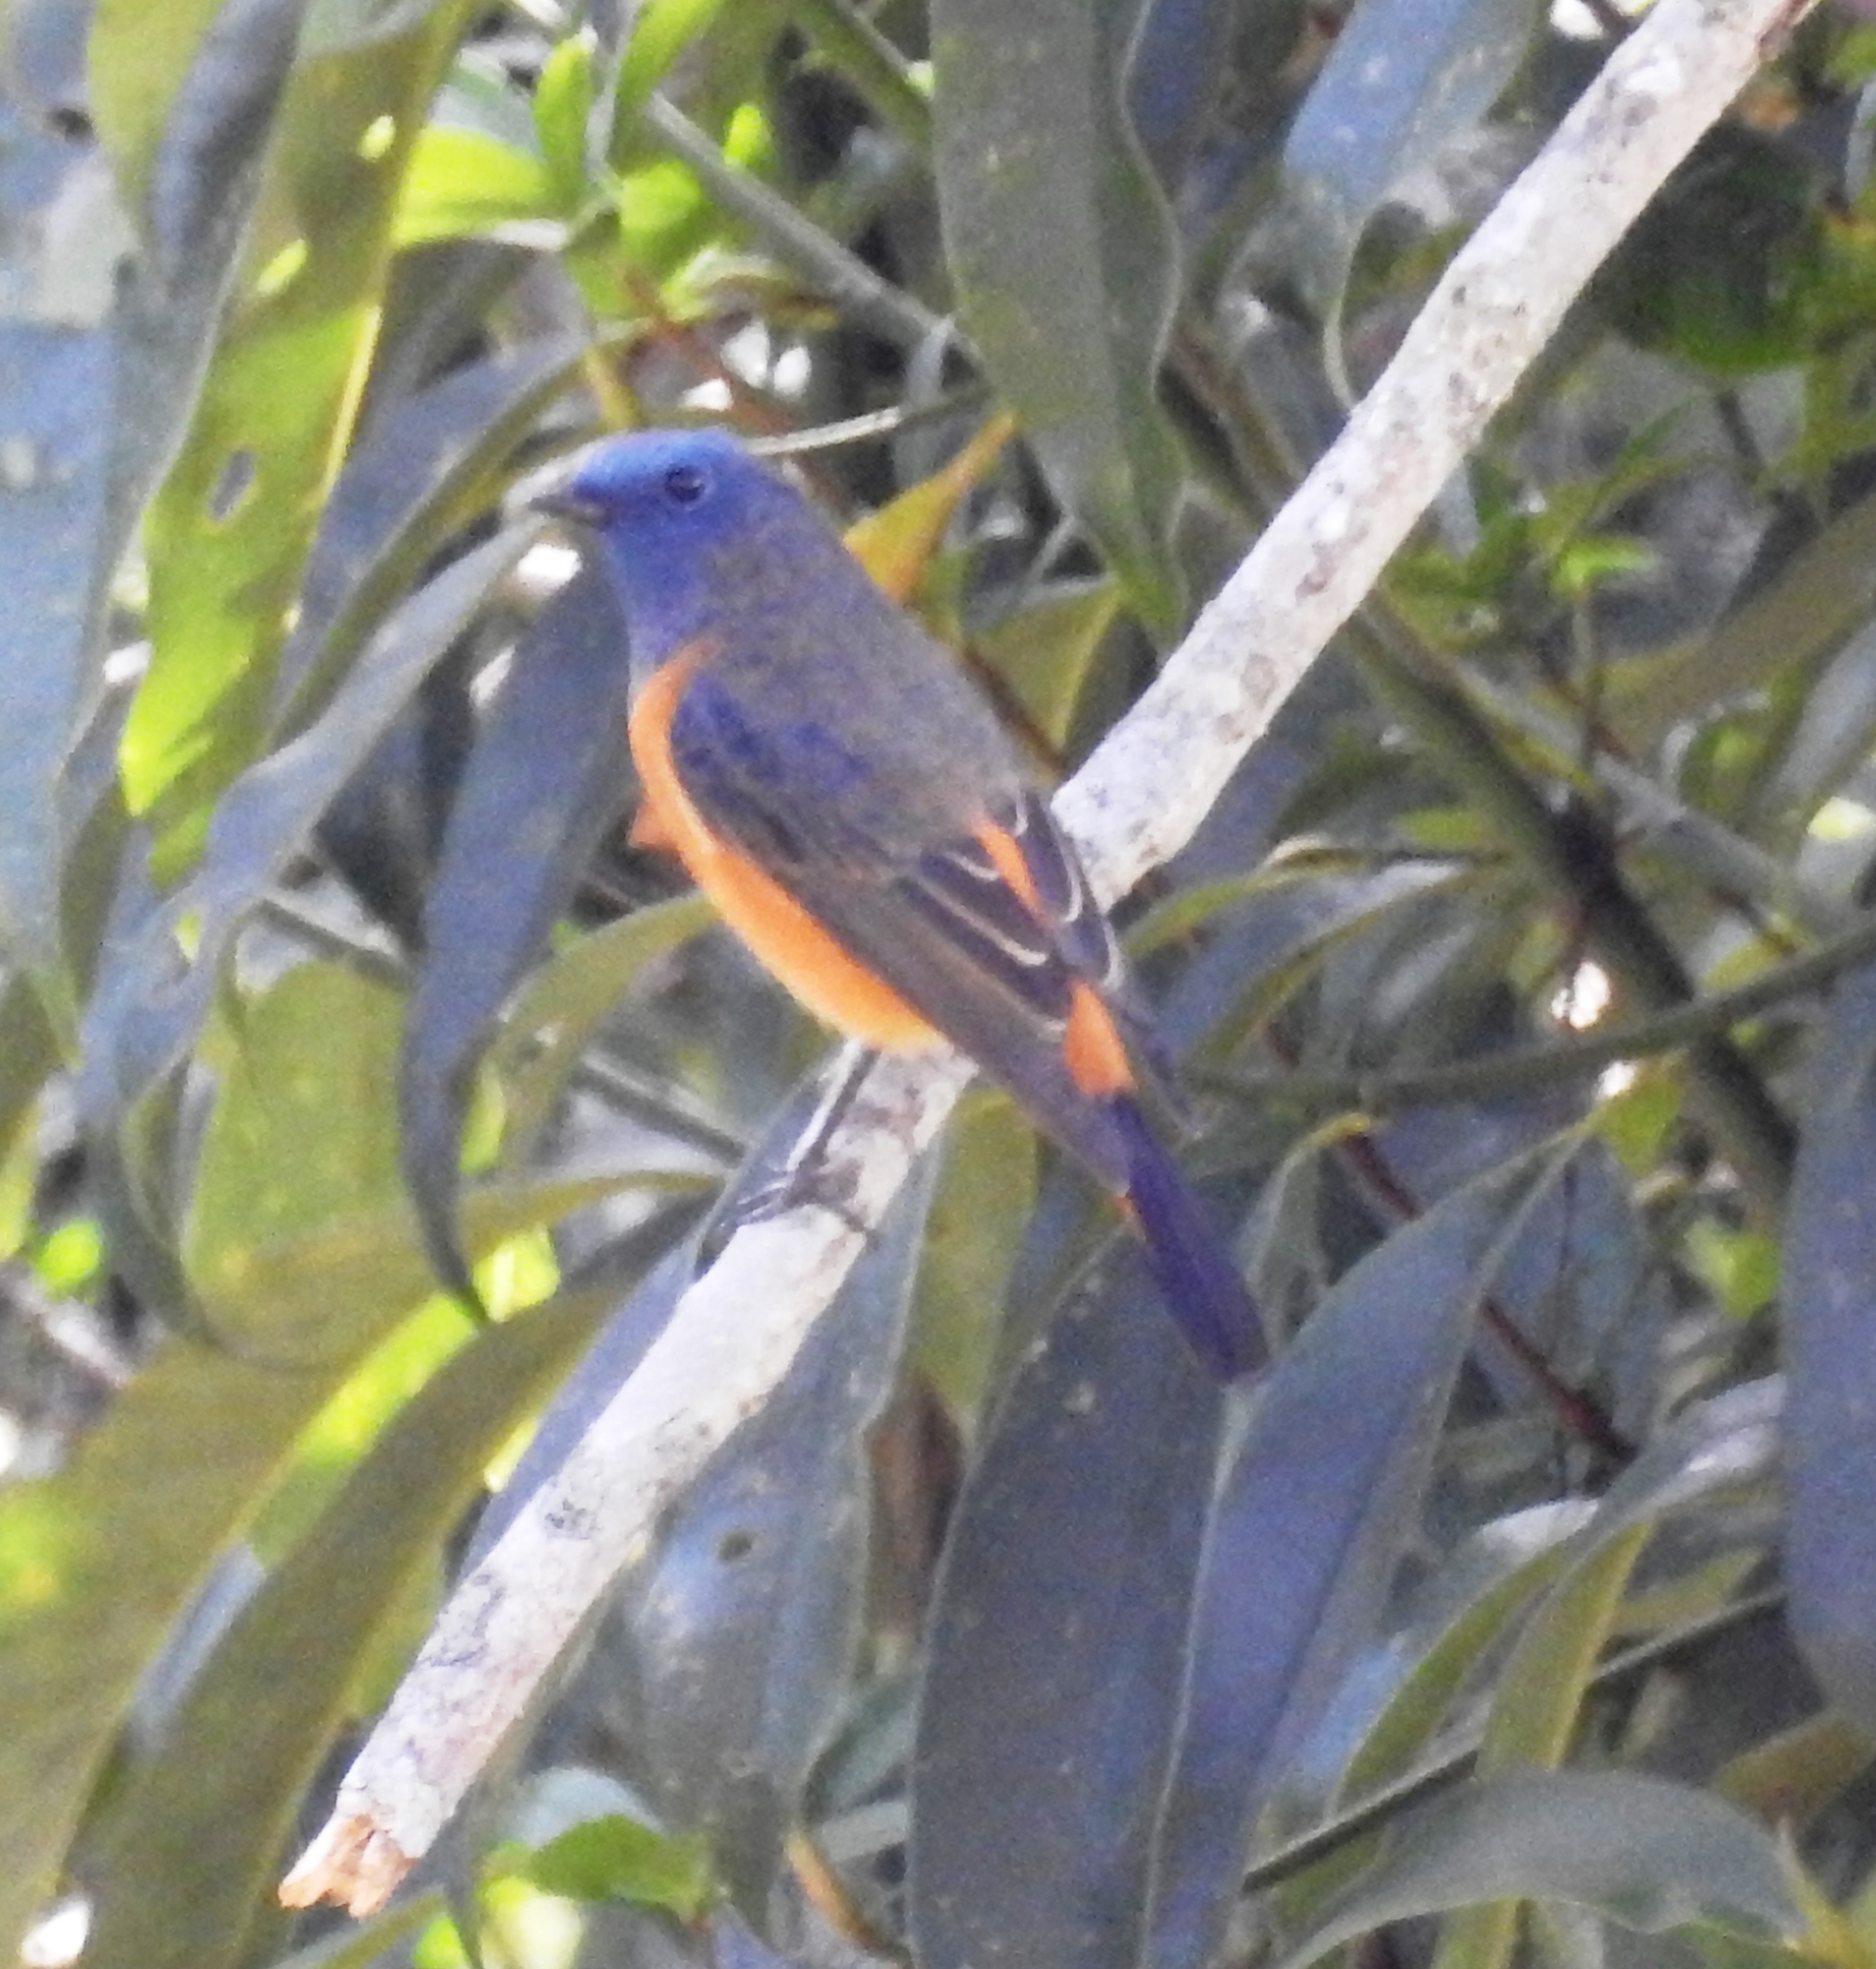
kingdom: Animalia
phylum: Chordata
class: Aves
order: Passeriformes
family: Muscicapidae
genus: Phoenicurus
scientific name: Phoenicurus frontalis
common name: Blue-fronted redstart
